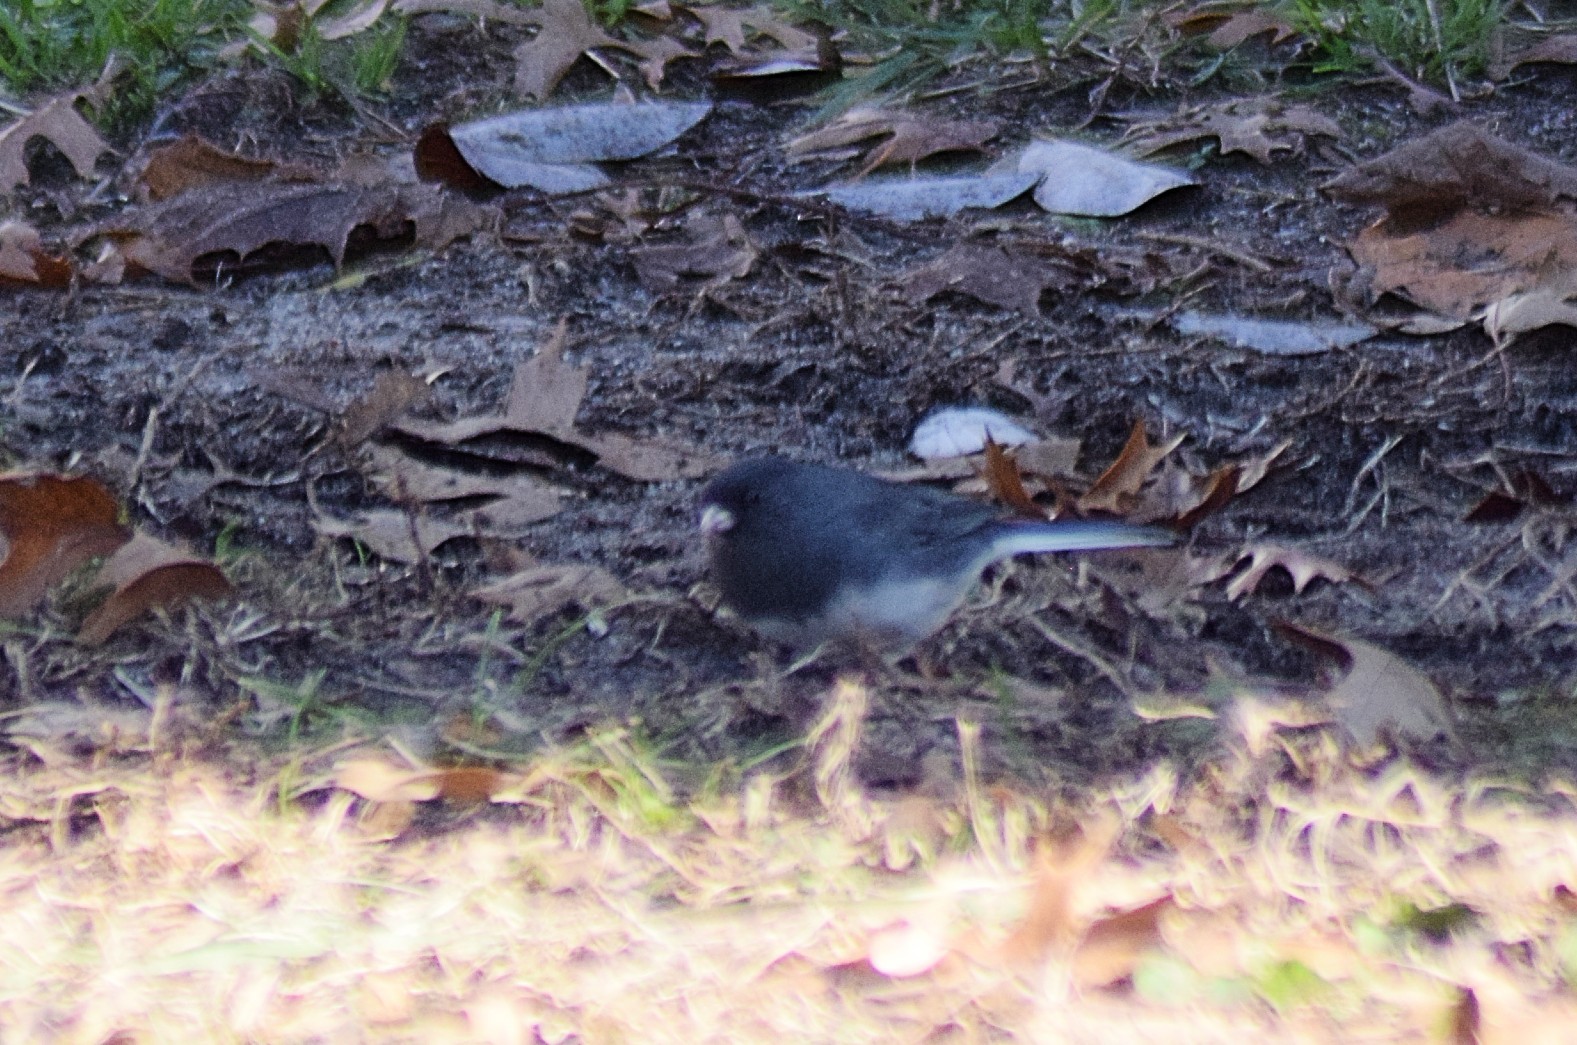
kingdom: Animalia
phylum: Chordata
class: Aves
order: Passeriformes
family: Passerellidae
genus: Junco
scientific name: Junco hyemalis
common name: Dark-eyed junco
